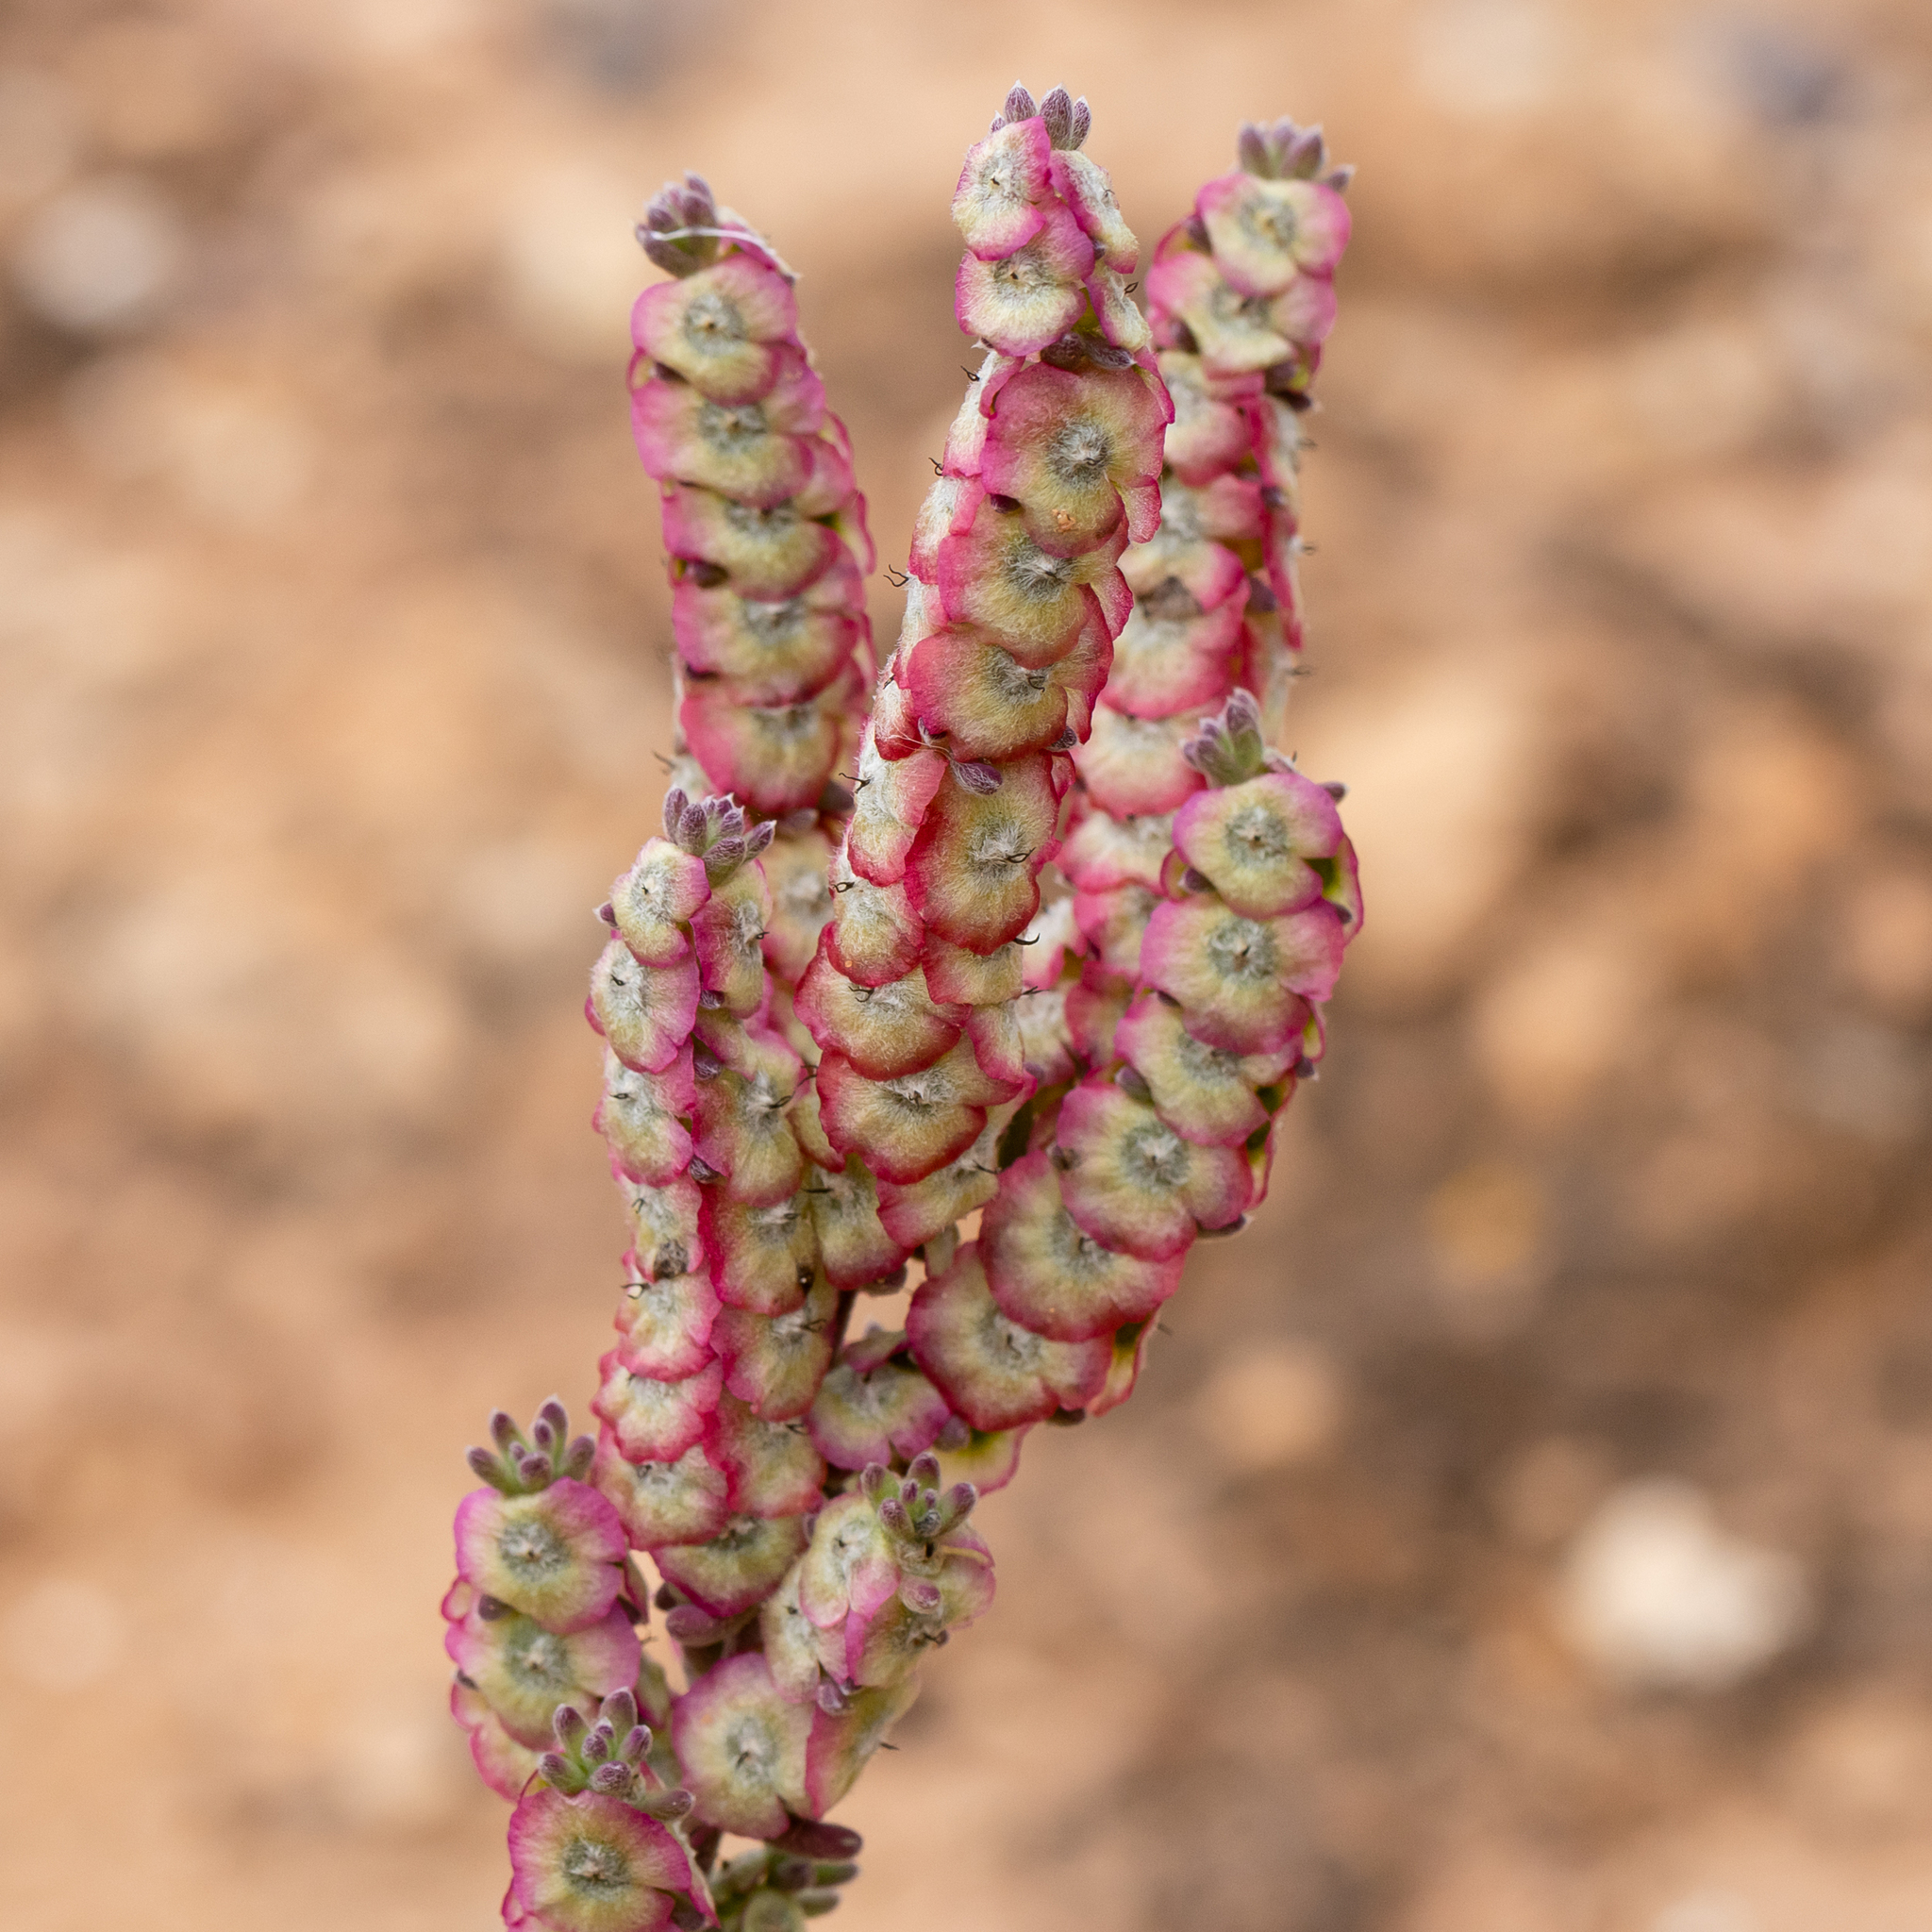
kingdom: Plantae
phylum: Tracheophyta
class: Magnoliopsida
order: Caryophyllales
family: Amaranthaceae
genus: Maireana
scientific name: Maireana trichoptera
